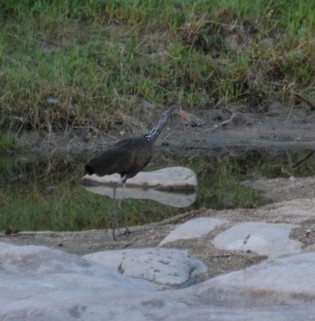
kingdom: Animalia
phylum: Chordata
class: Aves
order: Gruiformes
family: Aramidae
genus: Aramus
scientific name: Aramus guarauna
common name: Limpkin
